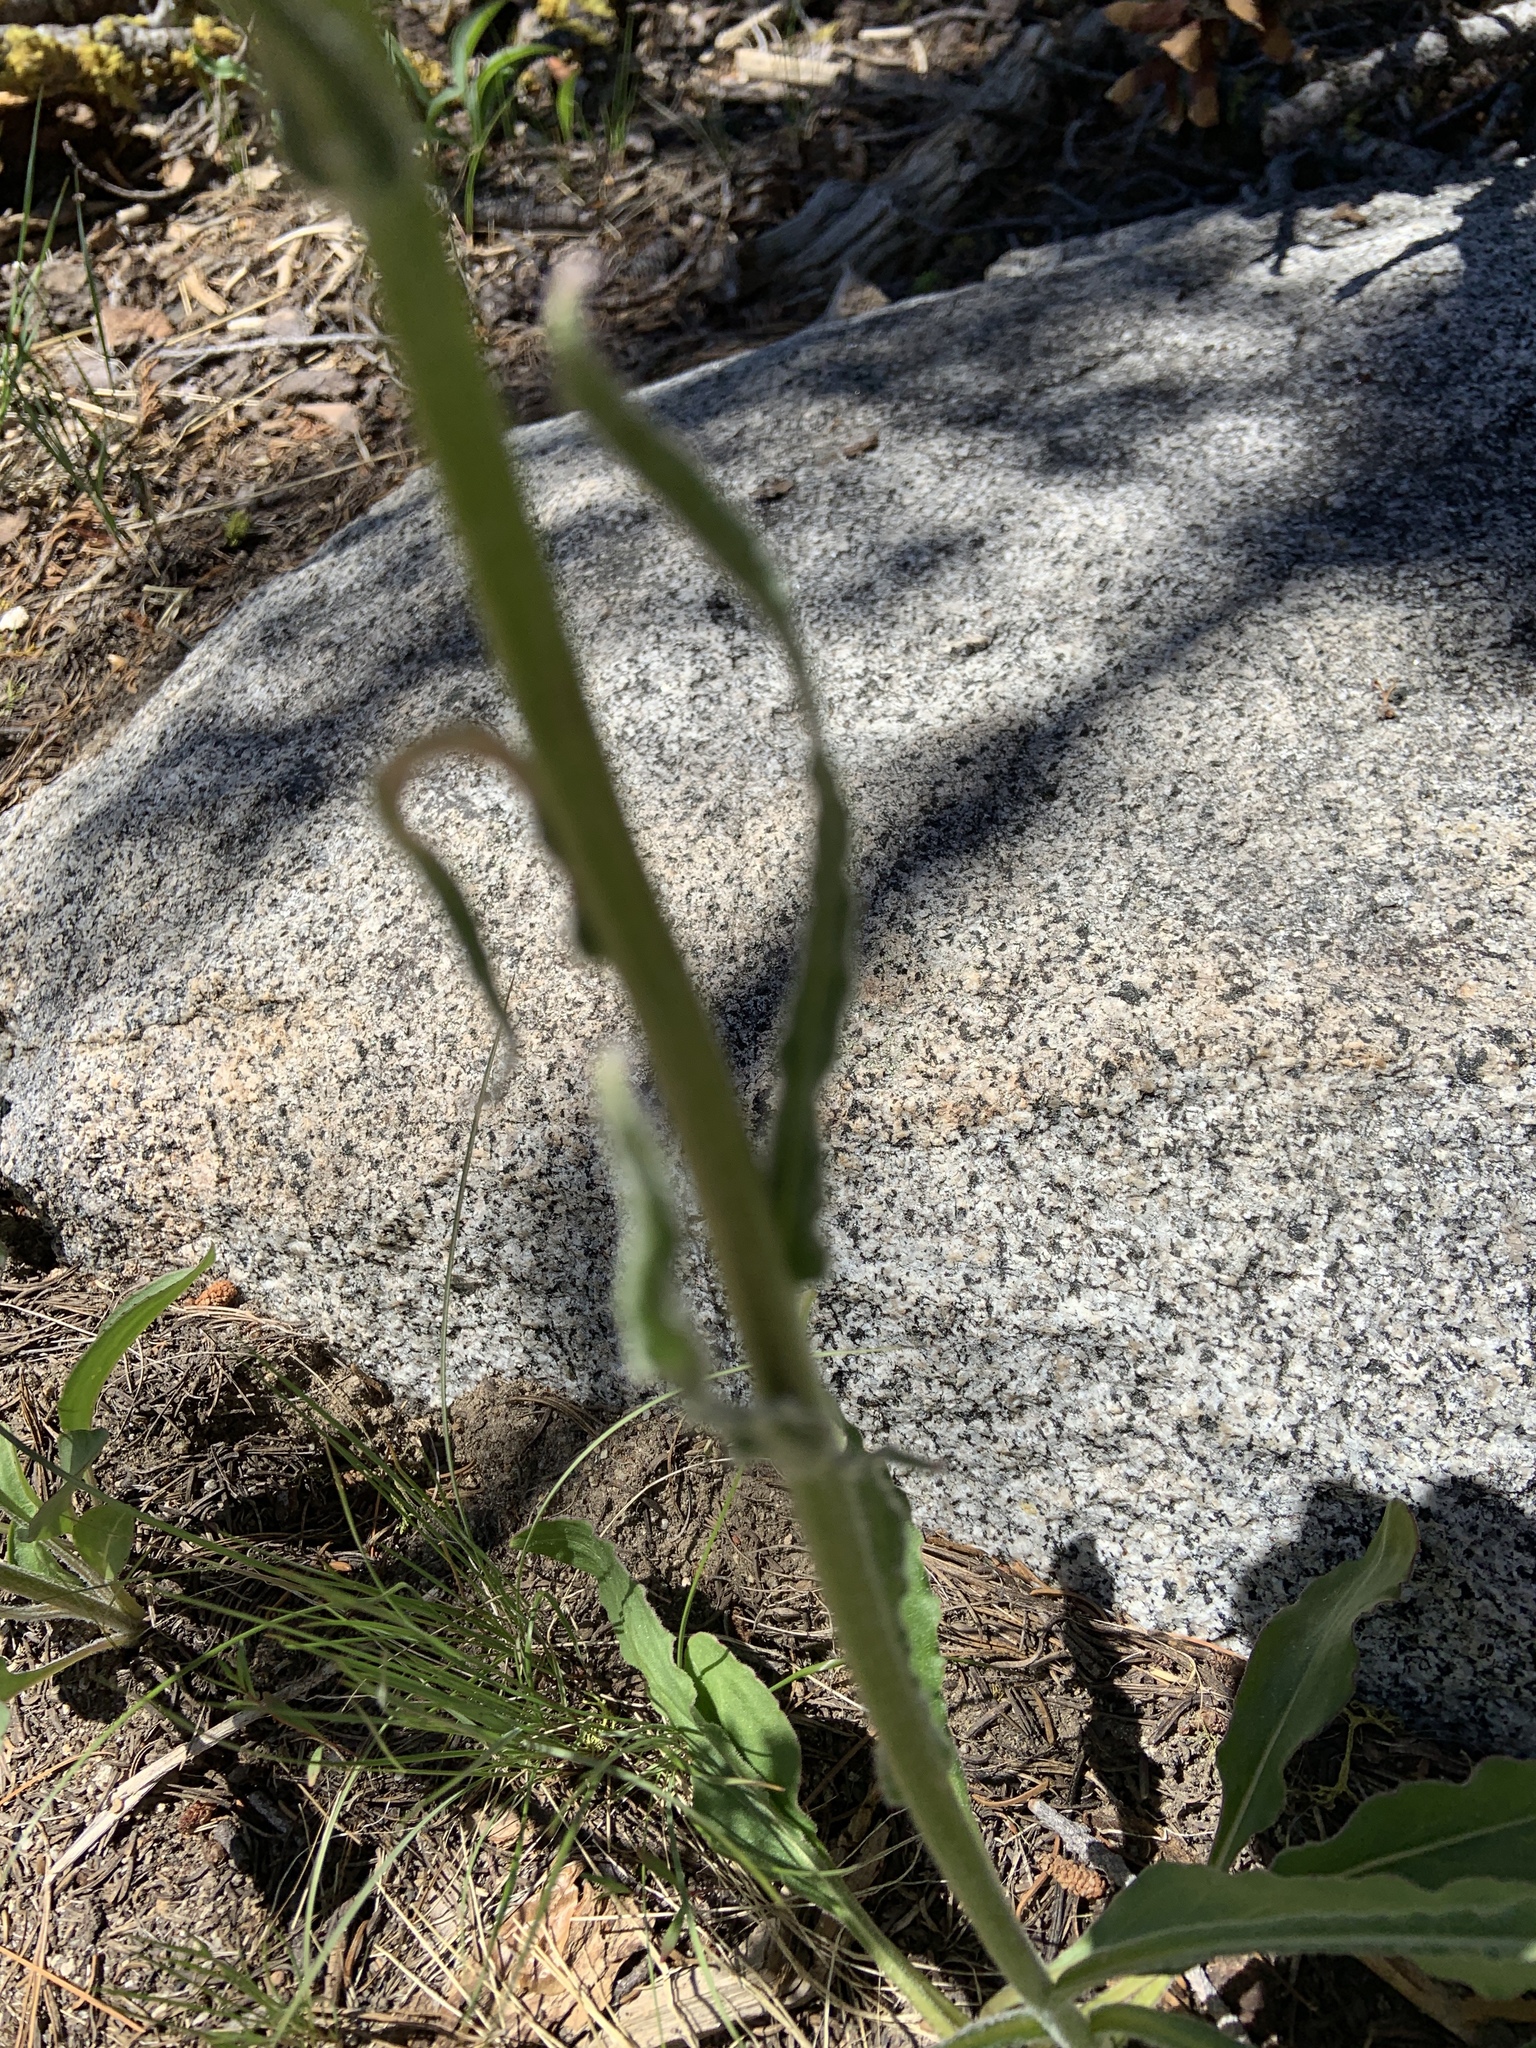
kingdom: Plantae
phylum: Tracheophyta
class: Magnoliopsida
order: Asterales
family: Asteraceae
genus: Senecio
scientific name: Senecio integerrimus
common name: Gaugeplant
